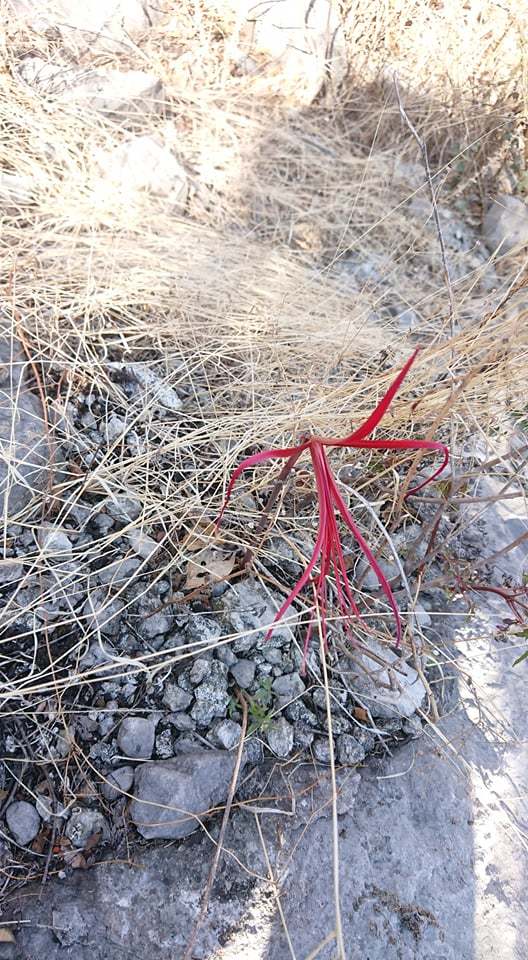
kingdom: Plantae
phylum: Tracheophyta
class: Liliopsida
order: Asparagales
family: Amaryllidaceae
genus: Zephyranthes
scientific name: Zephyranthes sprekeliopsis
